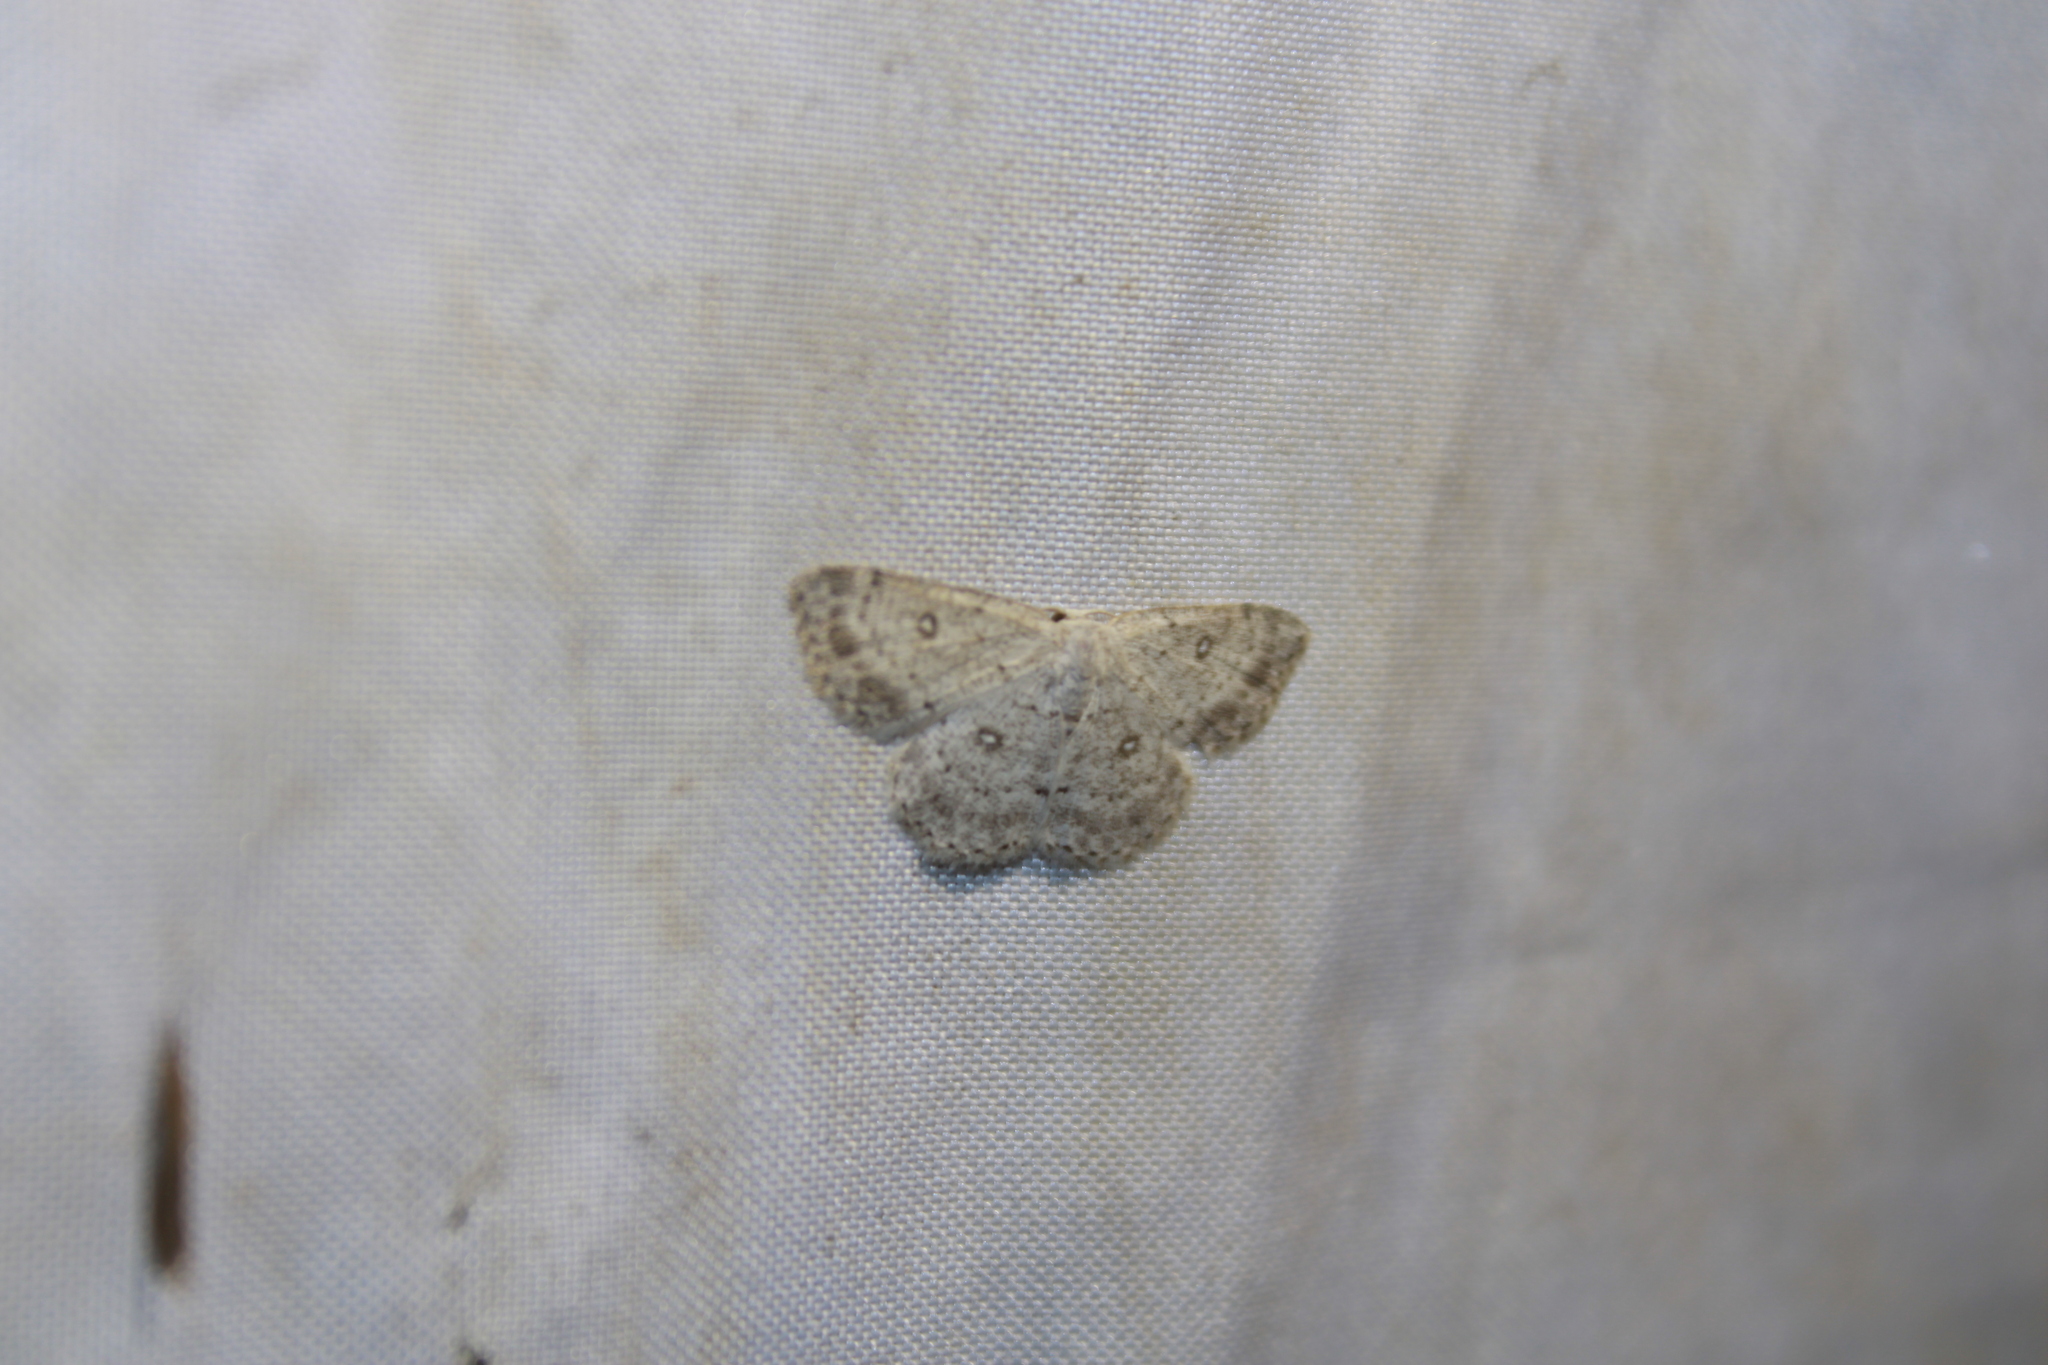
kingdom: Animalia
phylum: Arthropoda
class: Insecta
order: Lepidoptera
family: Geometridae
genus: Cyclophora
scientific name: Cyclophora pendulinaria
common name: Sweet fern geometer
